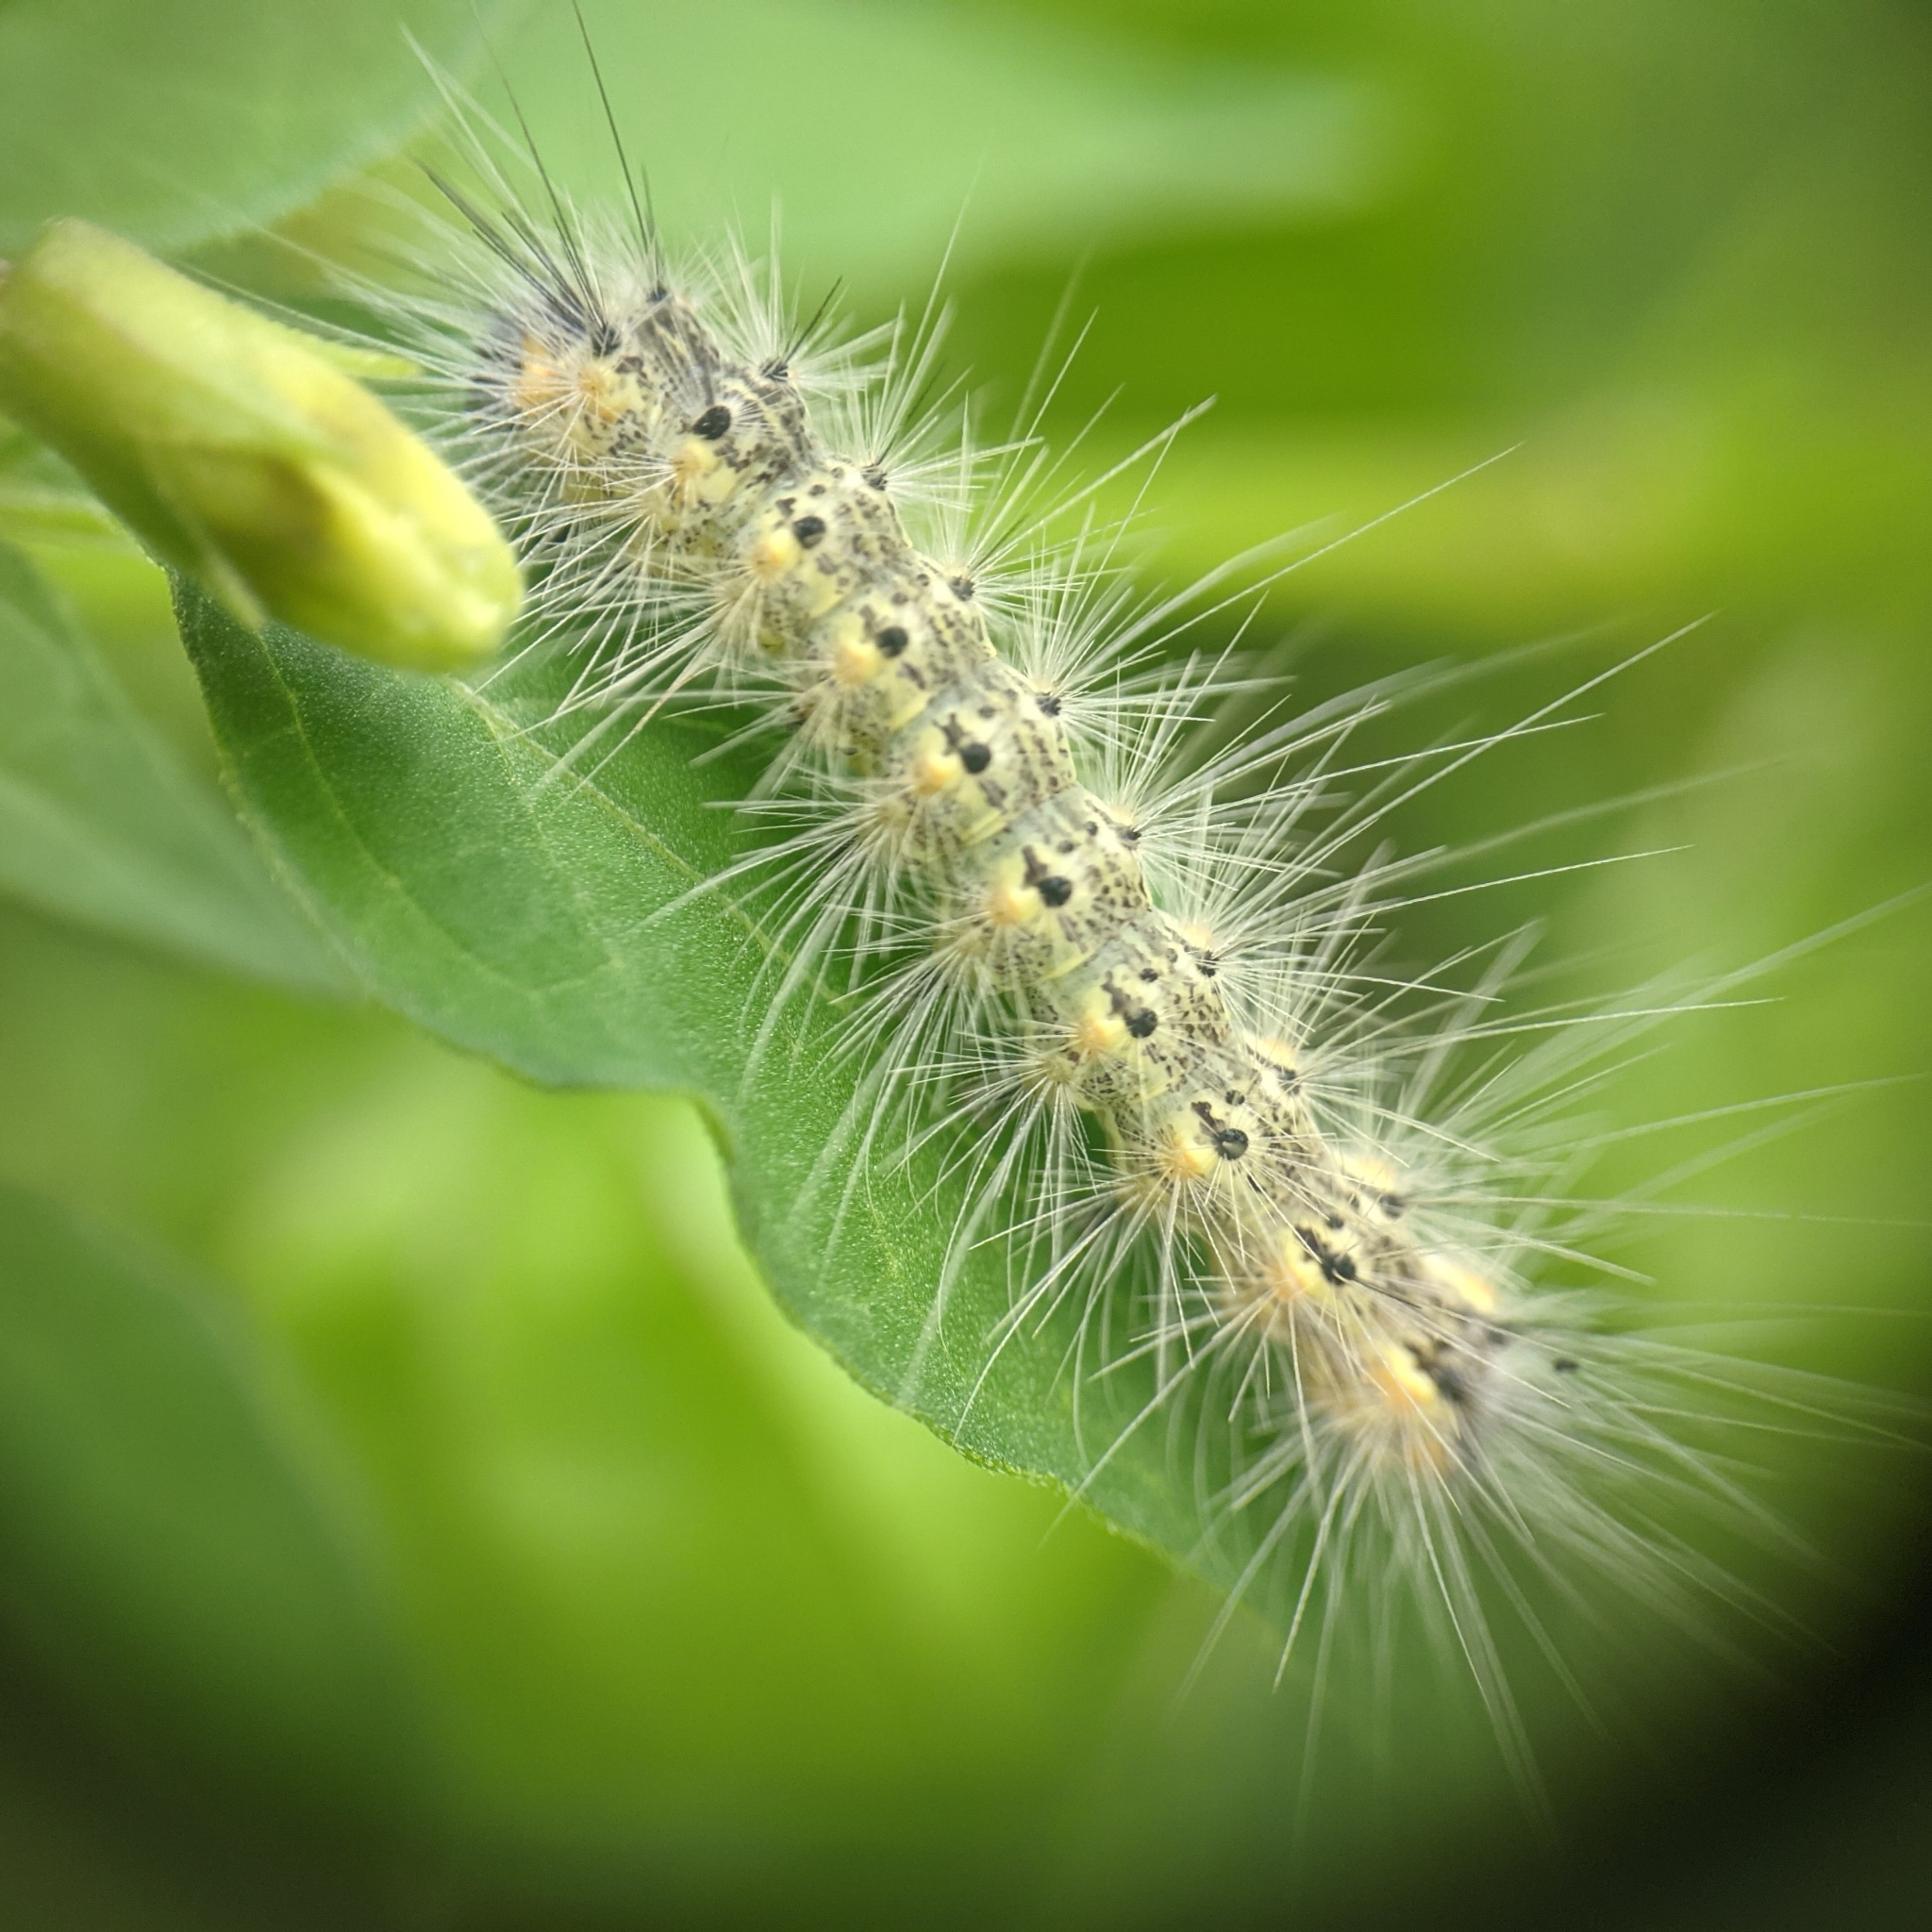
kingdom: Animalia
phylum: Arthropoda
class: Insecta
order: Lepidoptera
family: Erebidae
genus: Hyphantria
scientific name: Hyphantria cunea
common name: American white moth
